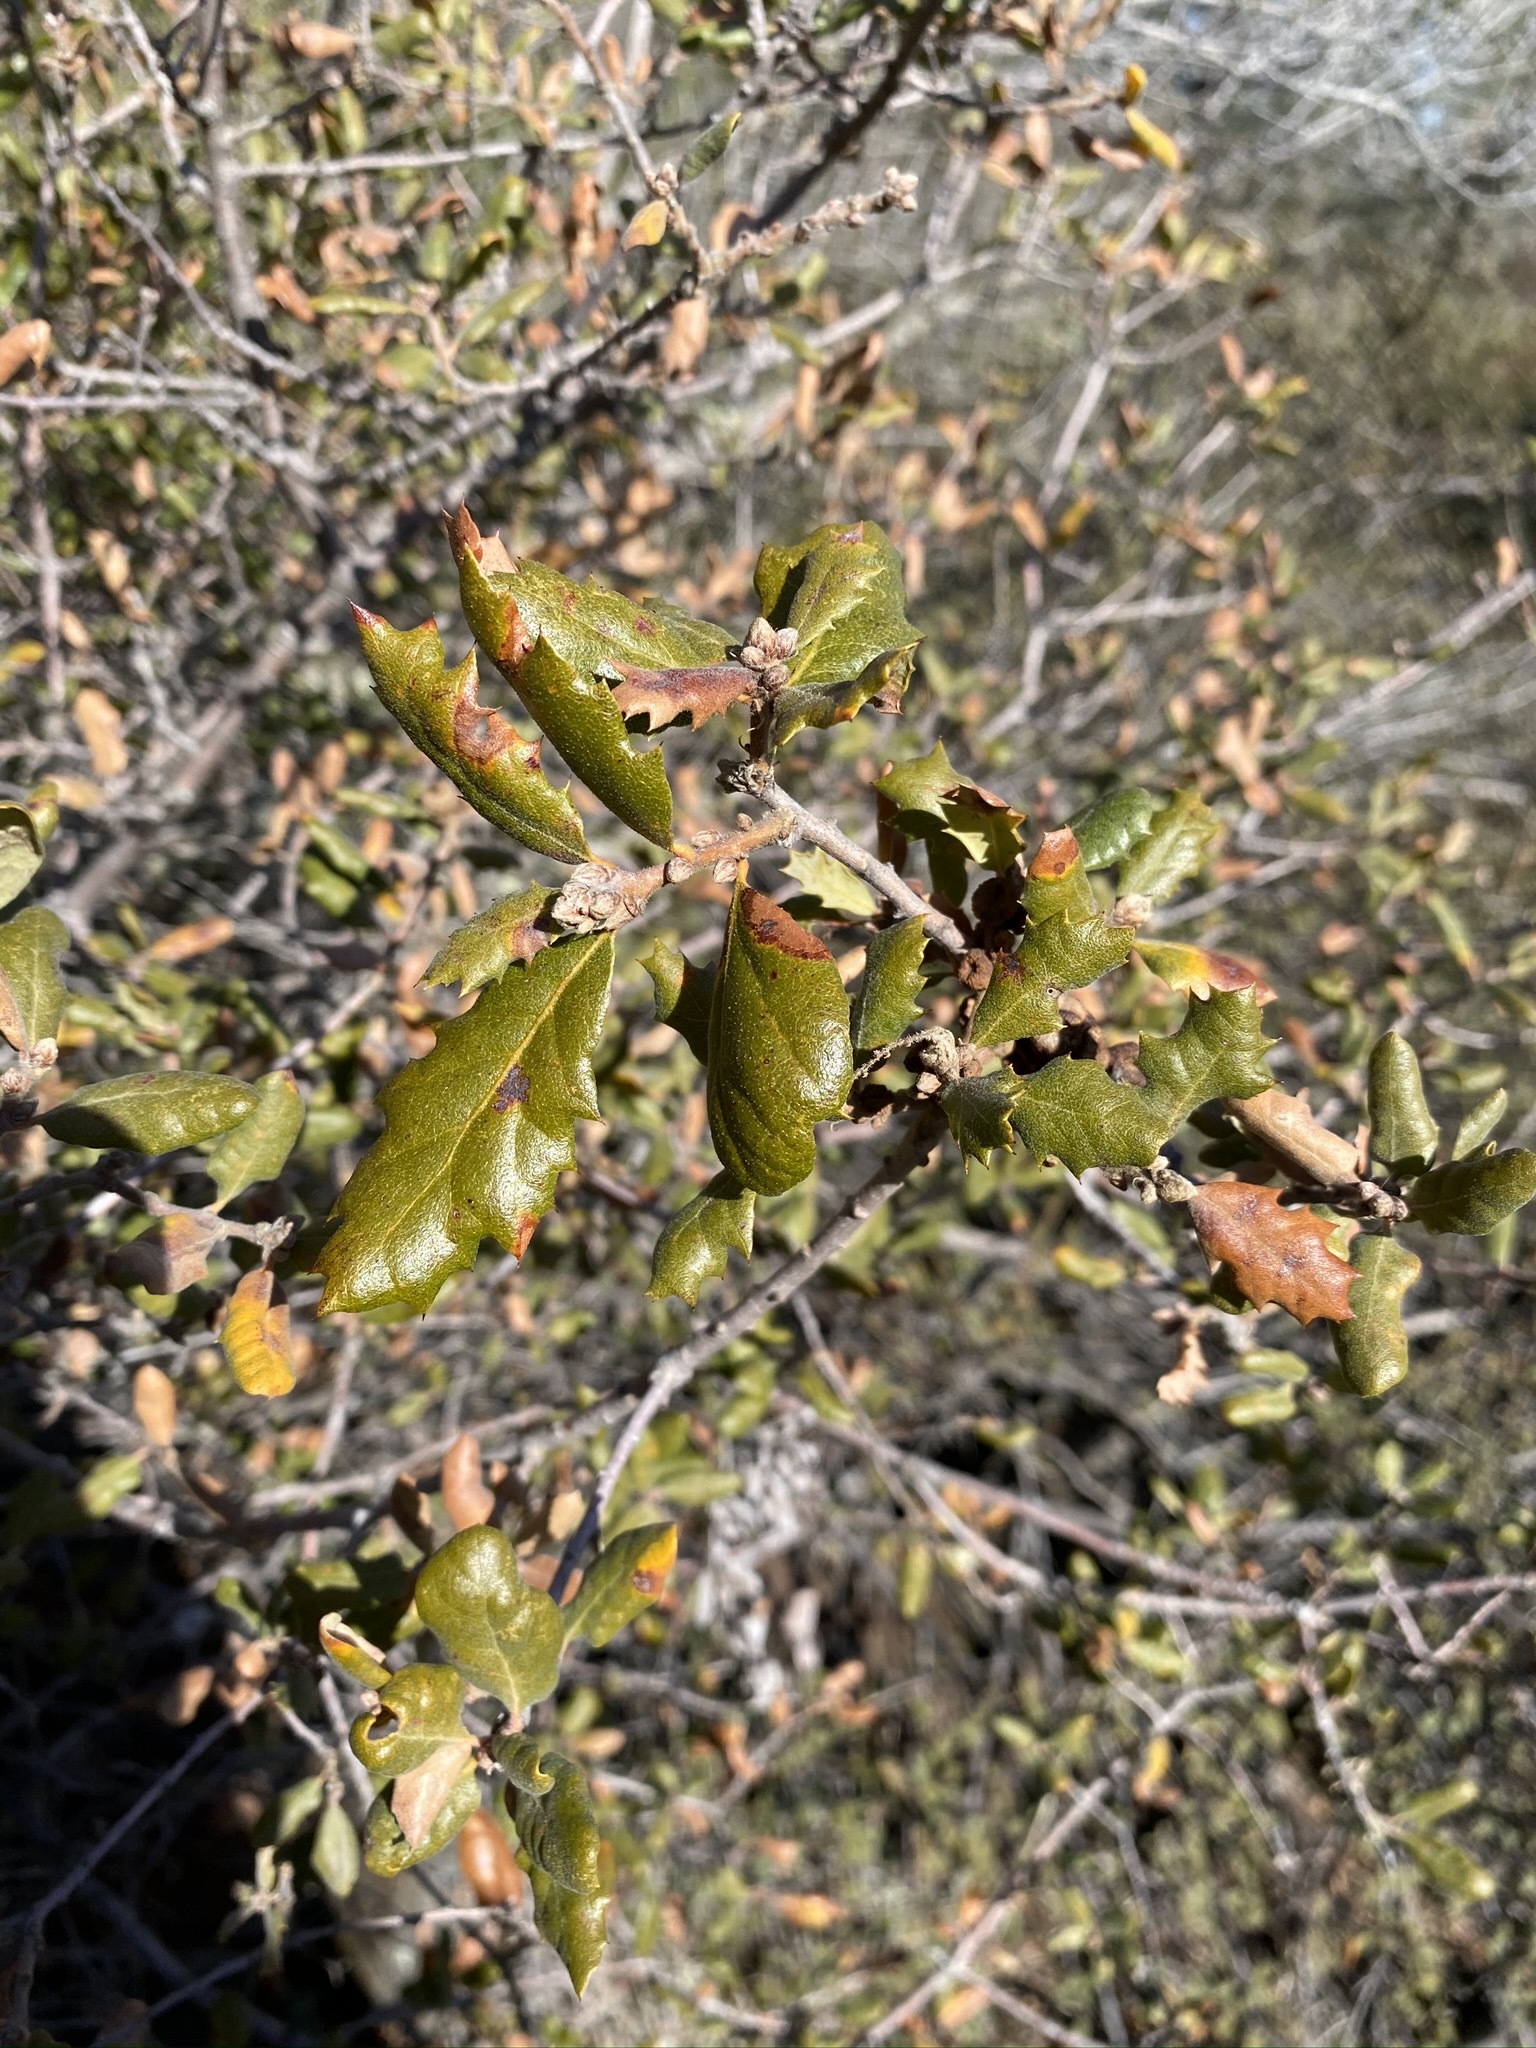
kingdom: Plantae
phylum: Tracheophyta
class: Magnoliopsida
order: Fagales
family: Fagaceae
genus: Quercus
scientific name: Quercus durata
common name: Leather oak
